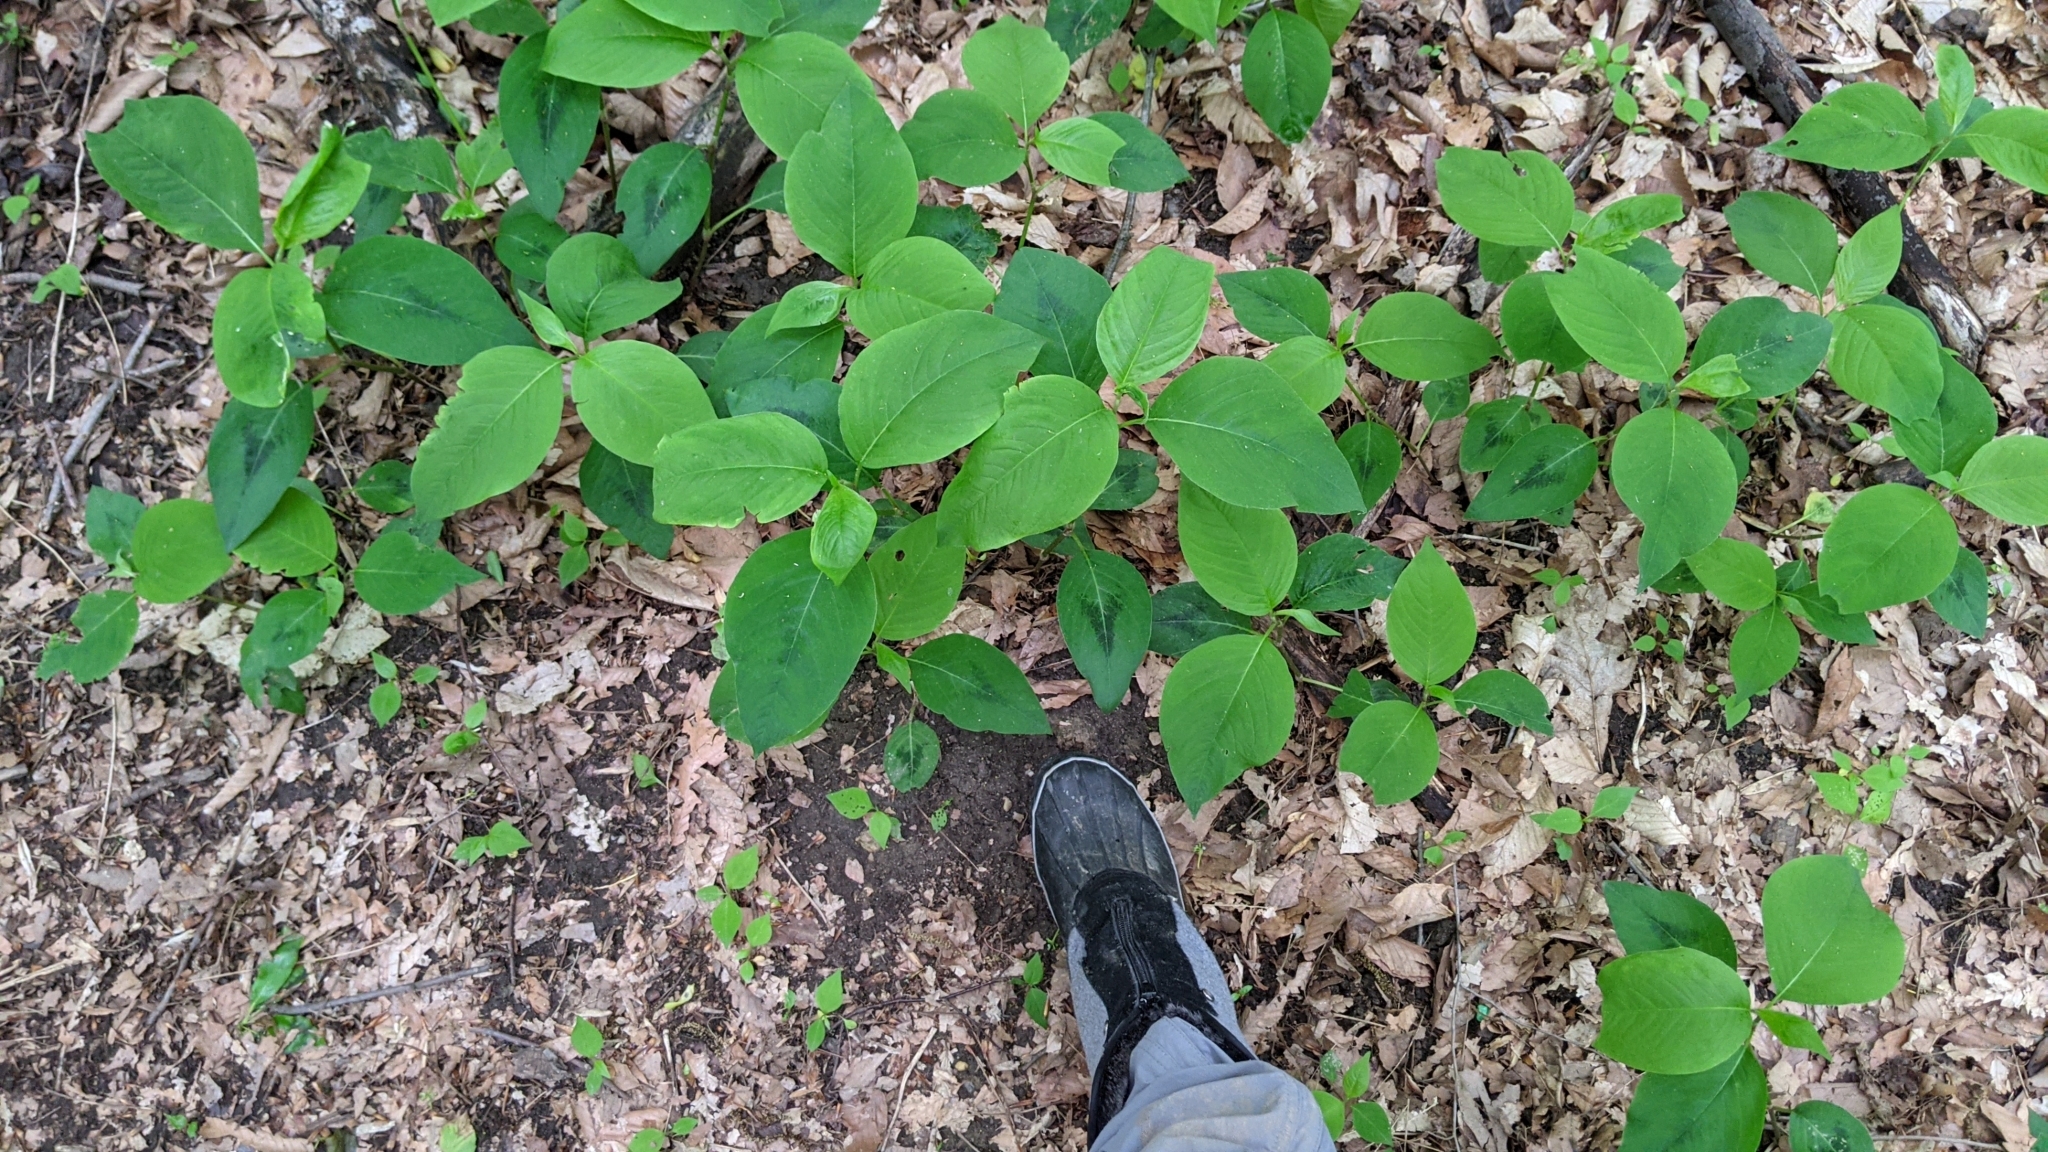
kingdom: Plantae
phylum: Tracheophyta
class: Magnoliopsida
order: Caryophyllales
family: Polygonaceae
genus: Persicaria
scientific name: Persicaria virginiana
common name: Jumpseed
